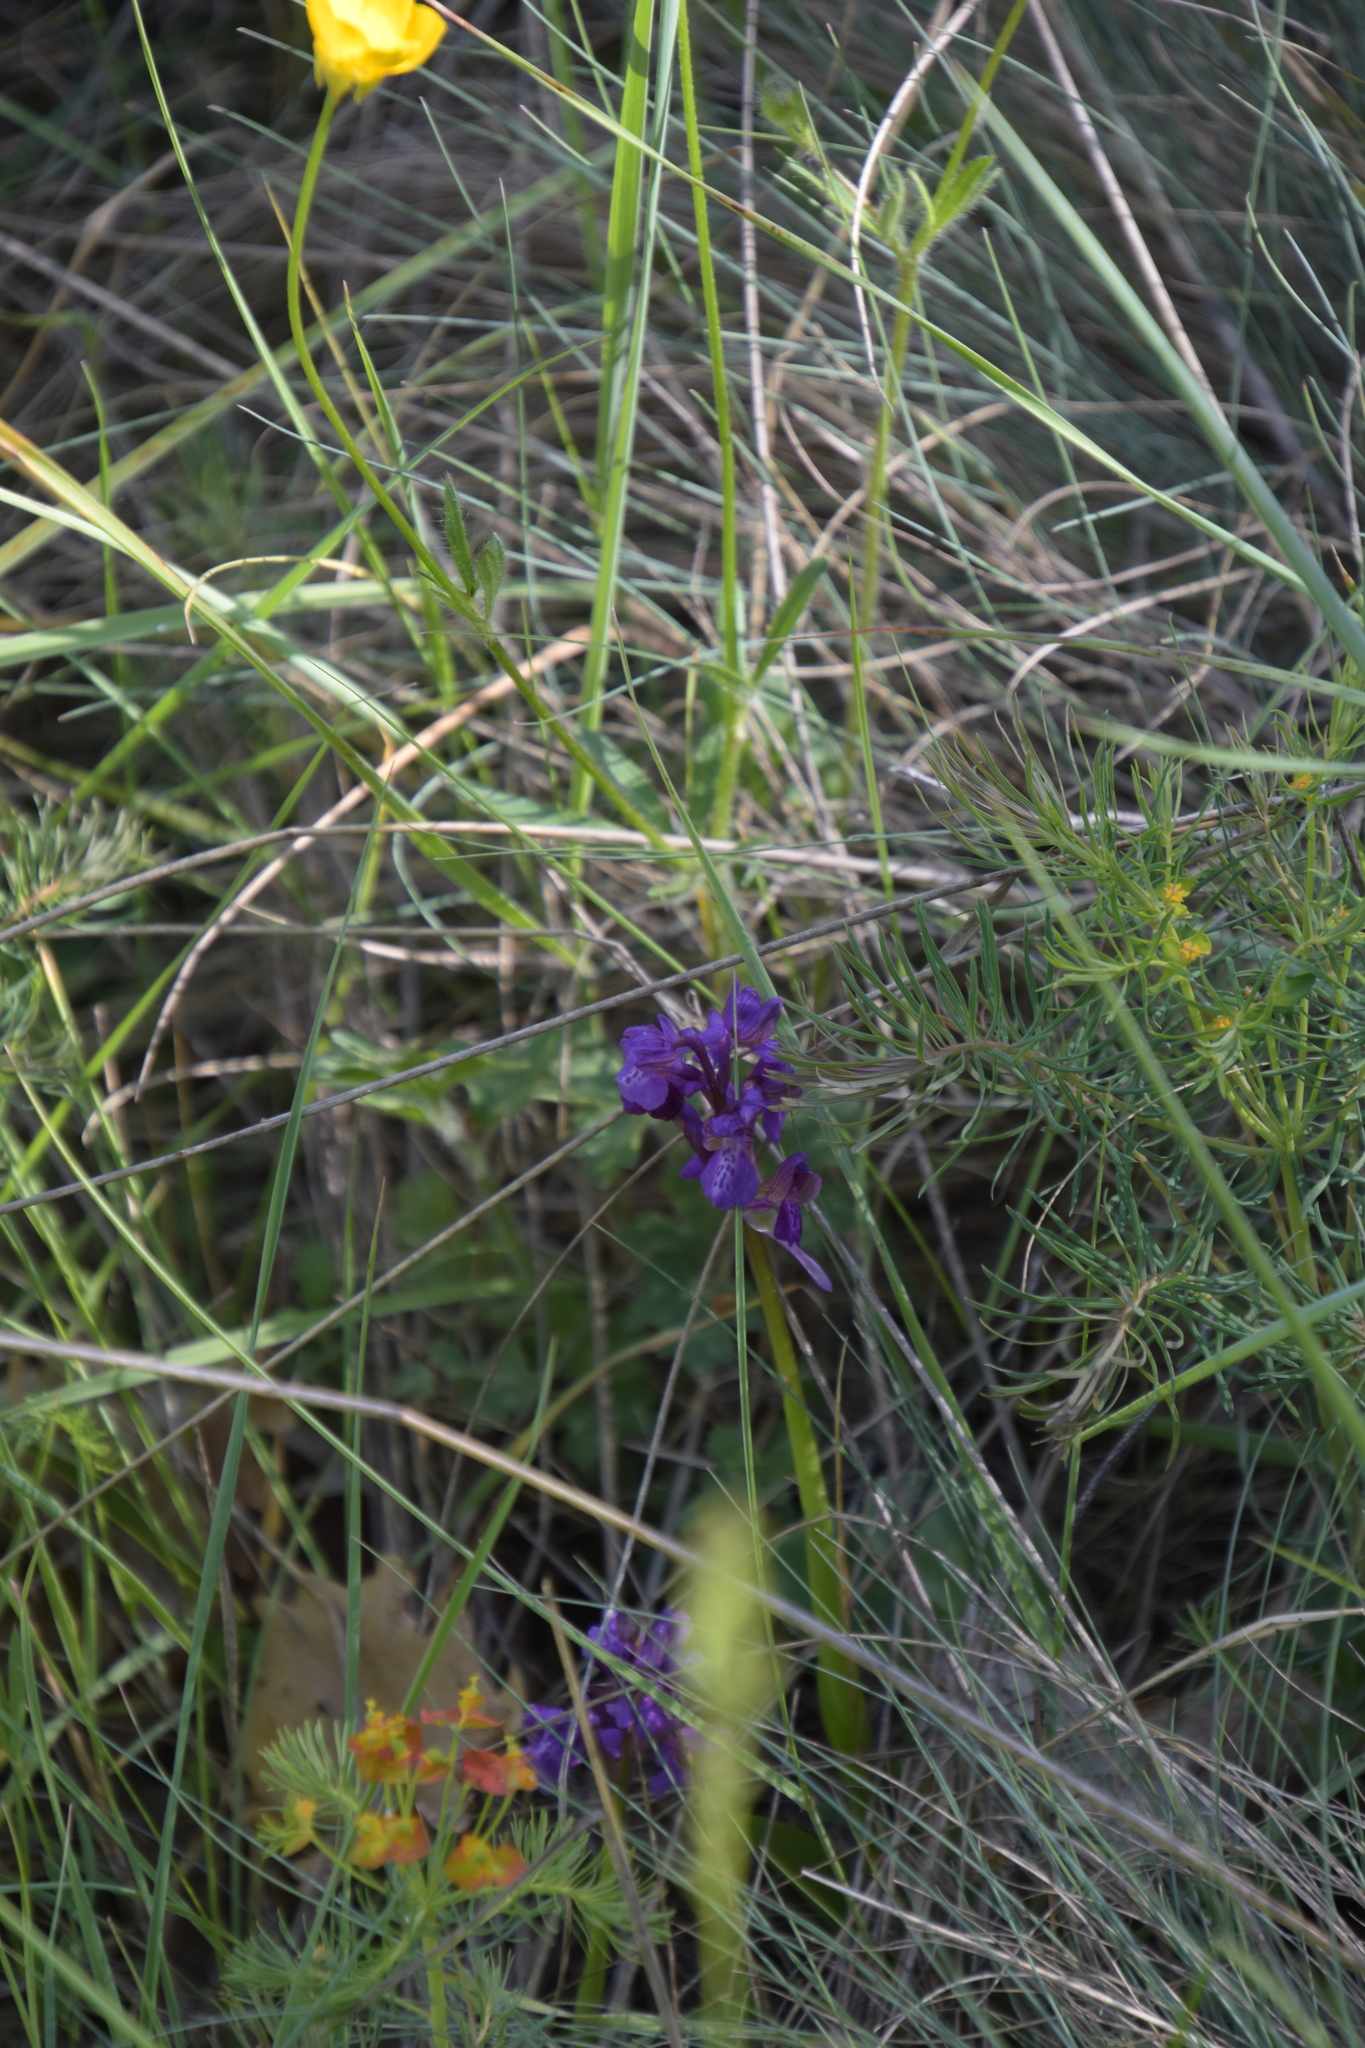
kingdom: Plantae
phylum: Tracheophyta
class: Liliopsida
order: Asparagales
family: Orchidaceae
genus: Anacamptis
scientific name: Anacamptis morio
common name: Green-winged orchid
